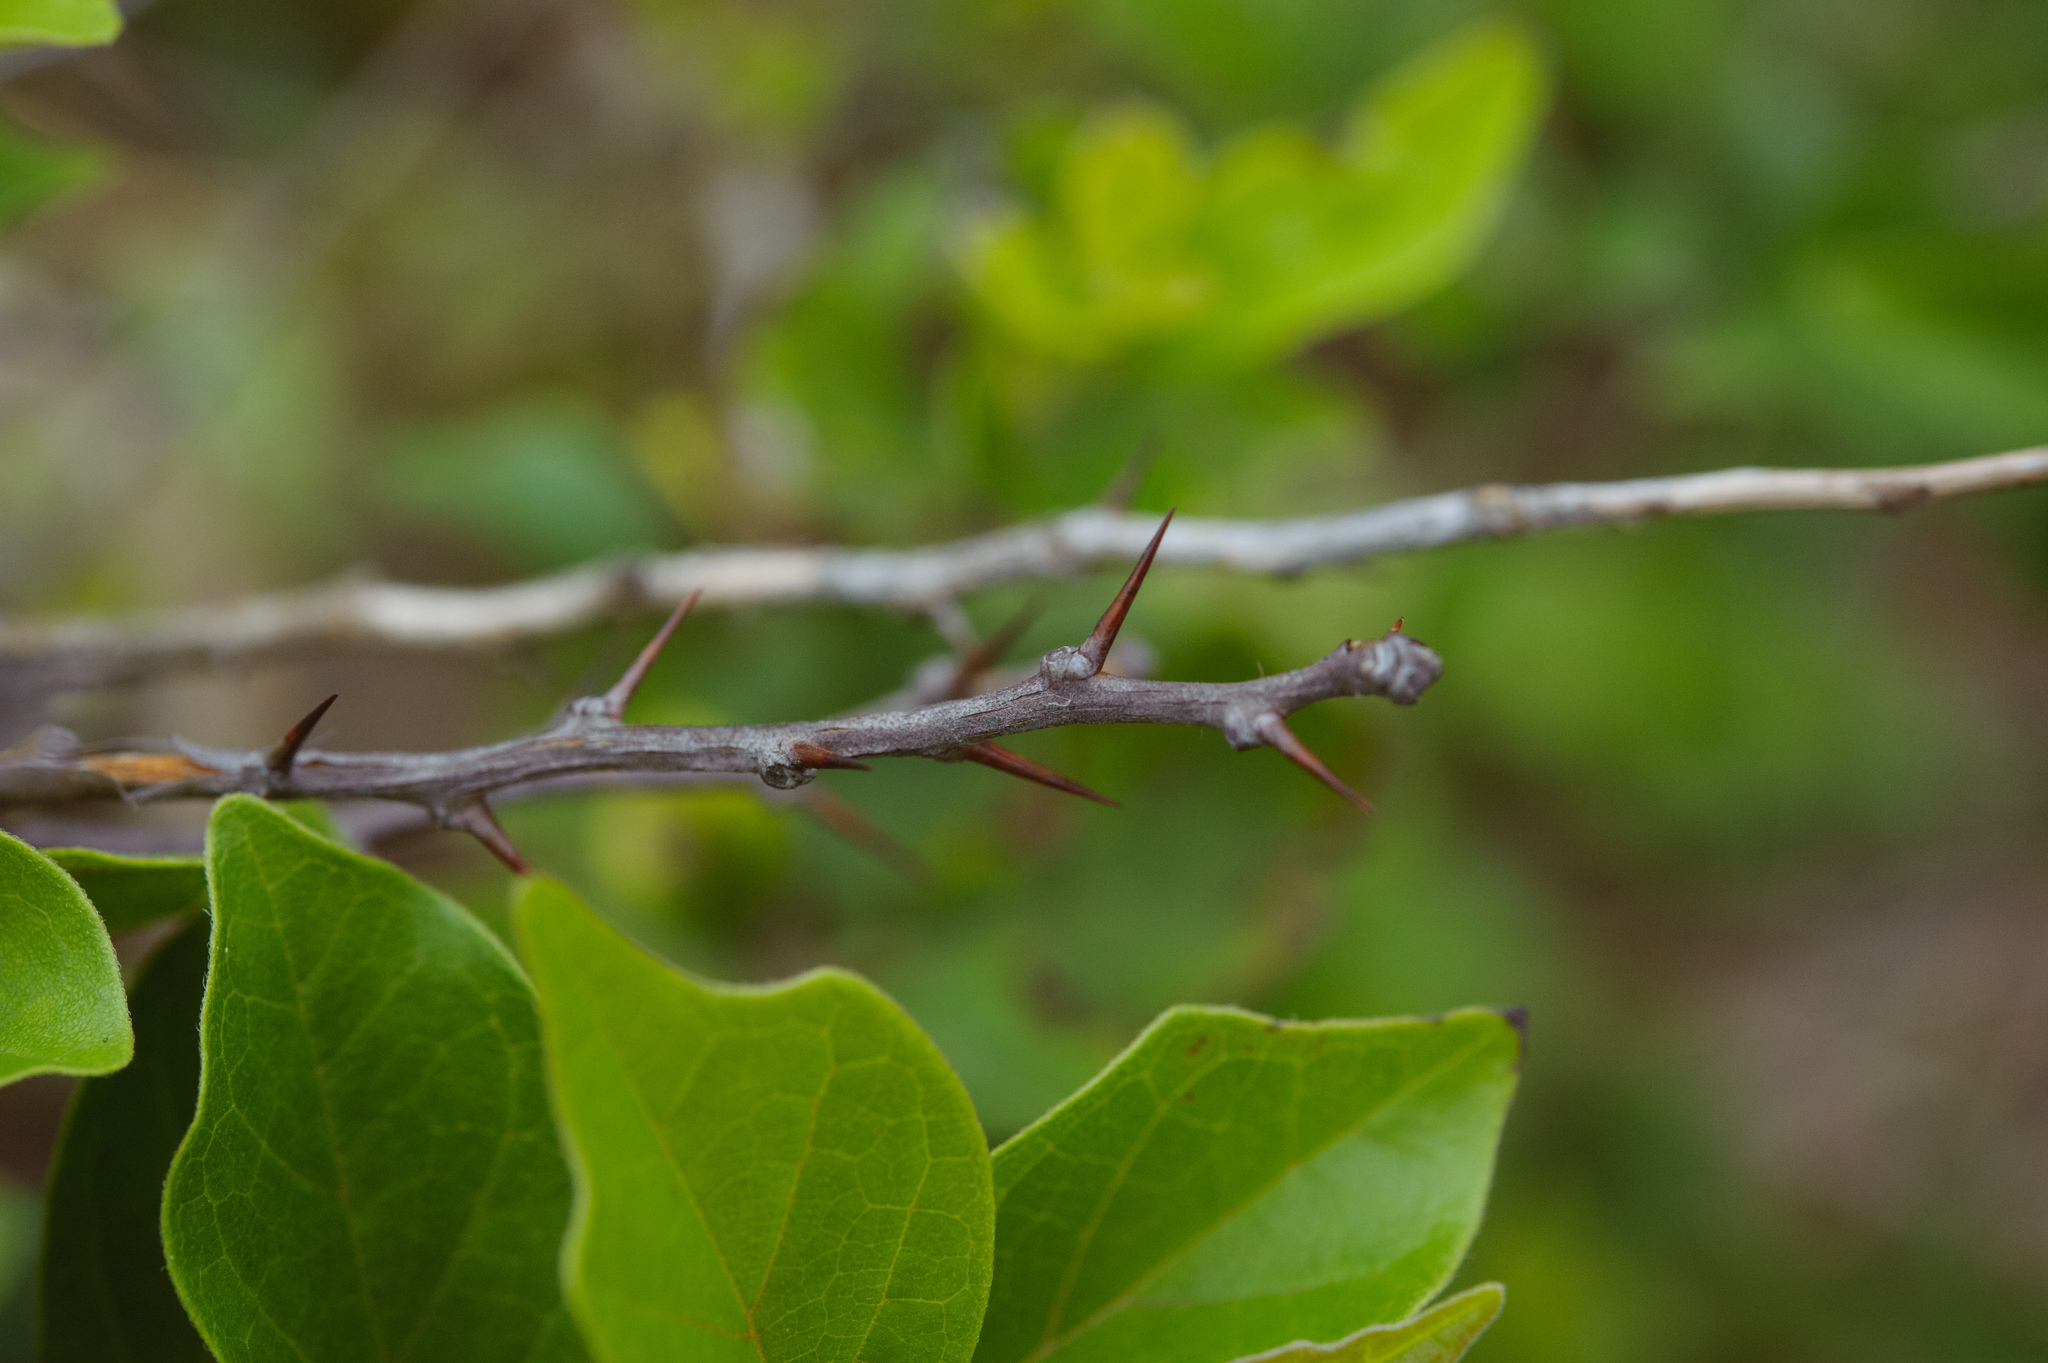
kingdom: Plantae
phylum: Tracheophyta
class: Magnoliopsida
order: Rosales
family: Moraceae
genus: Maclura
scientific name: Maclura tricuspidata
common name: Storehousebush
